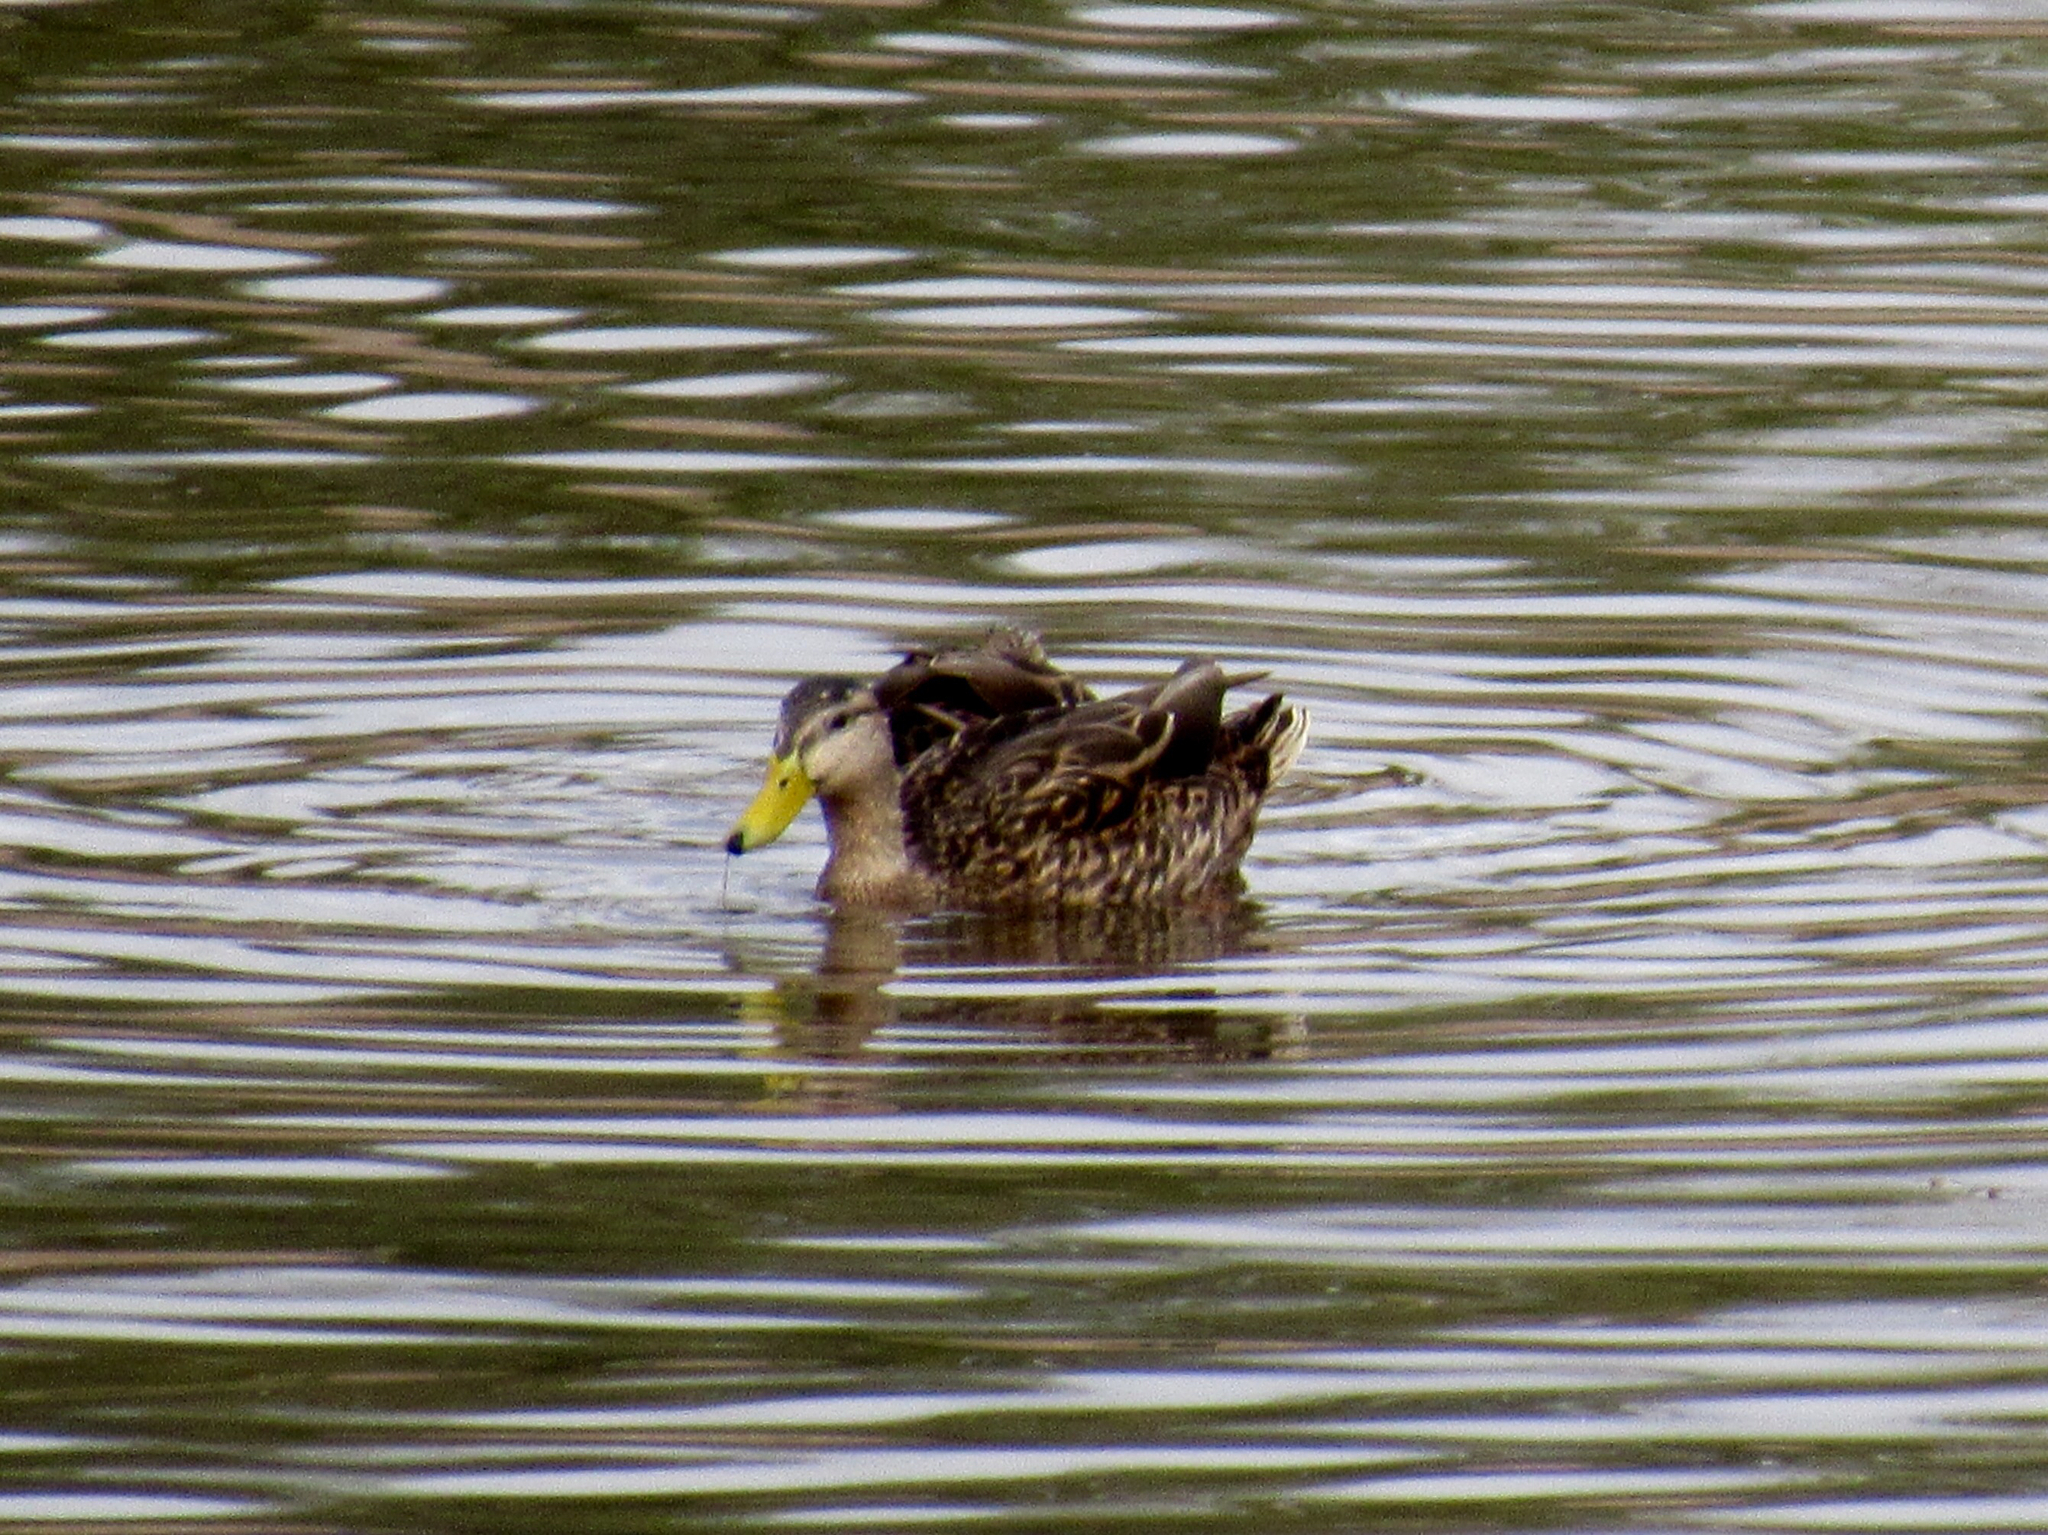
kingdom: Animalia
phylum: Chordata
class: Aves
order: Anseriformes
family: Anatidae
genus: Anas
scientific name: Anas platyrhynchos
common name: Mallard
